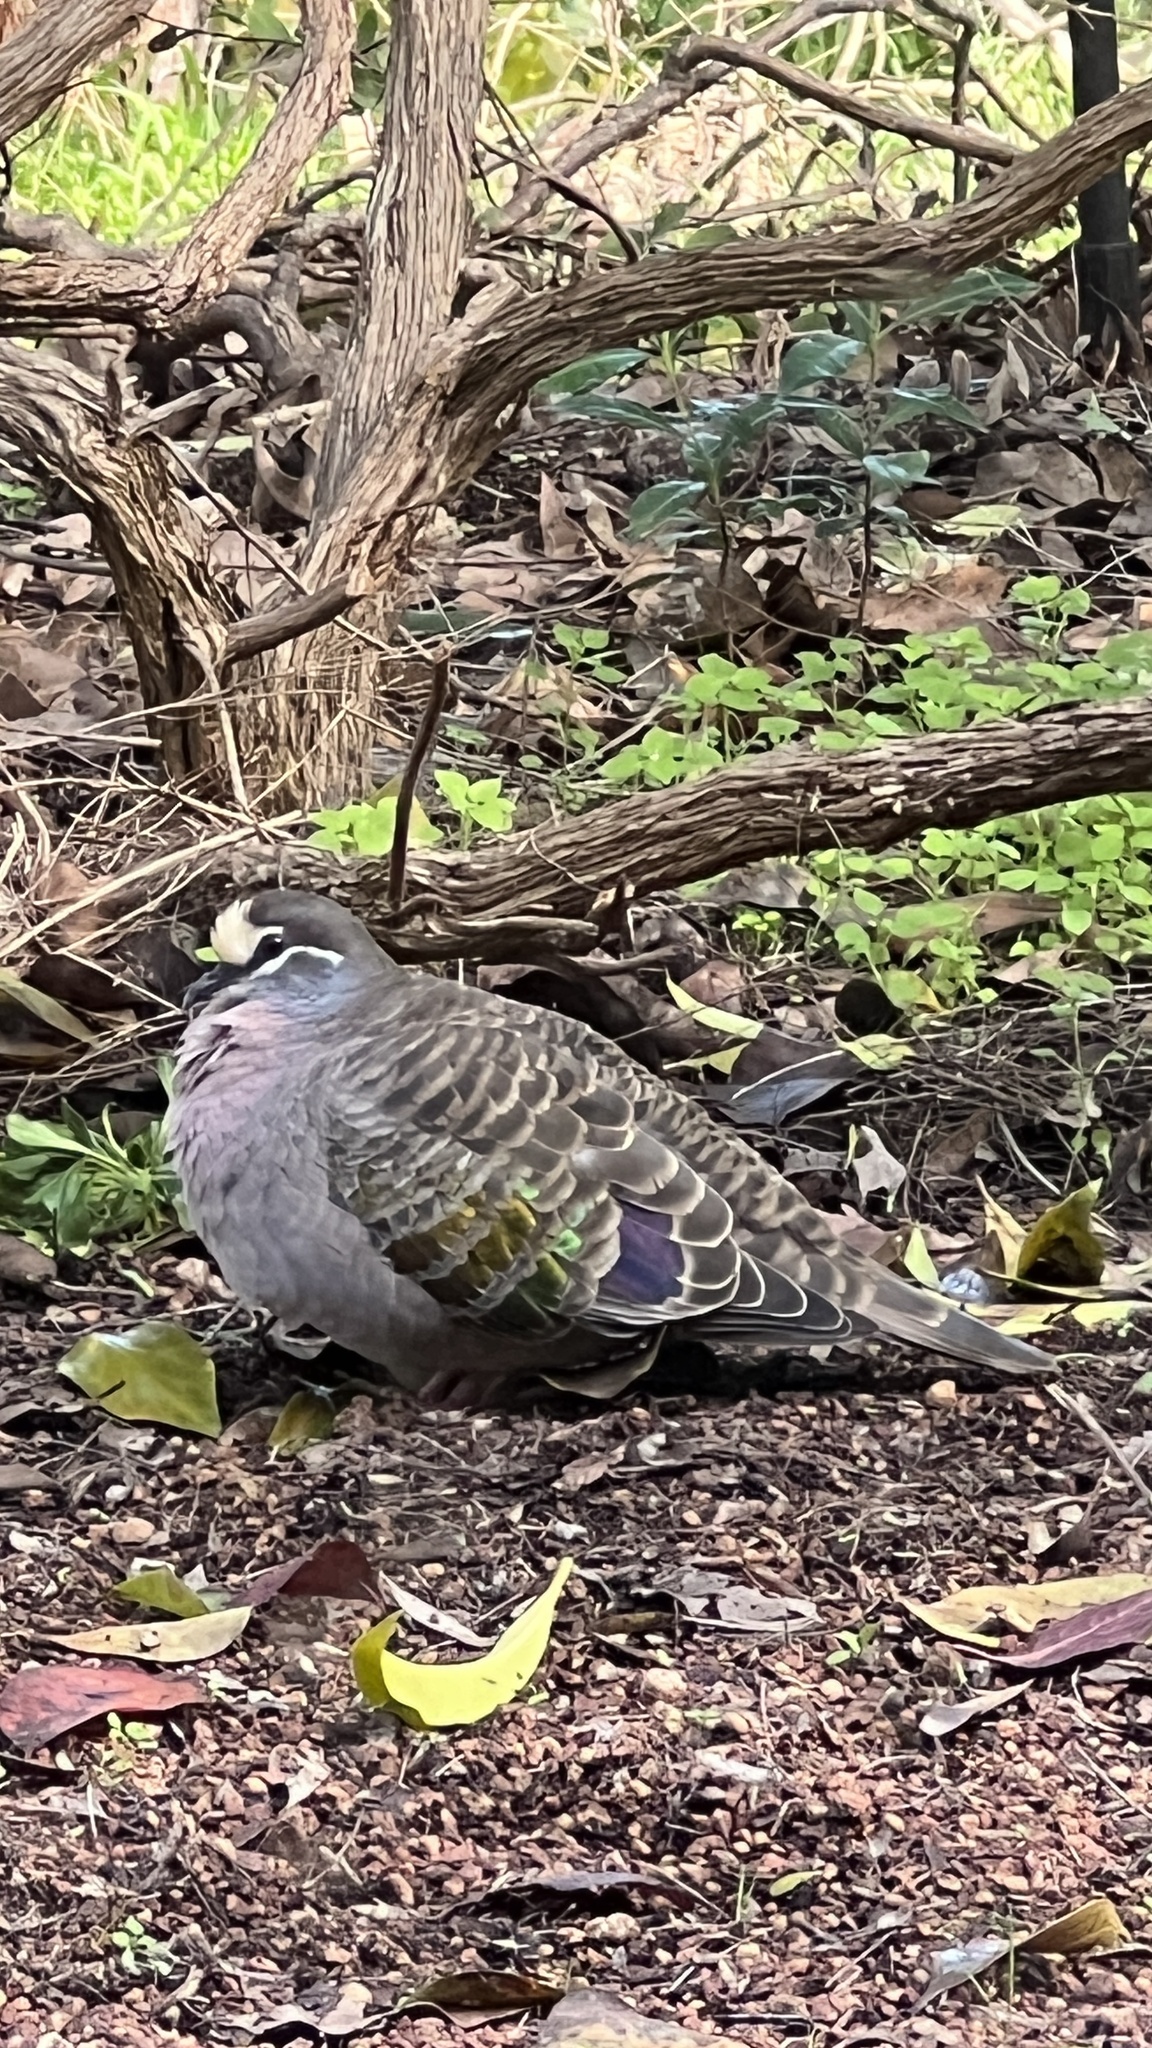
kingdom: Animalia
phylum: Chordata
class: Aves
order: Columbiformes
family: Columbidae
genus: Phaps
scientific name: Phaps chalcoptera
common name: Common bronzewing
